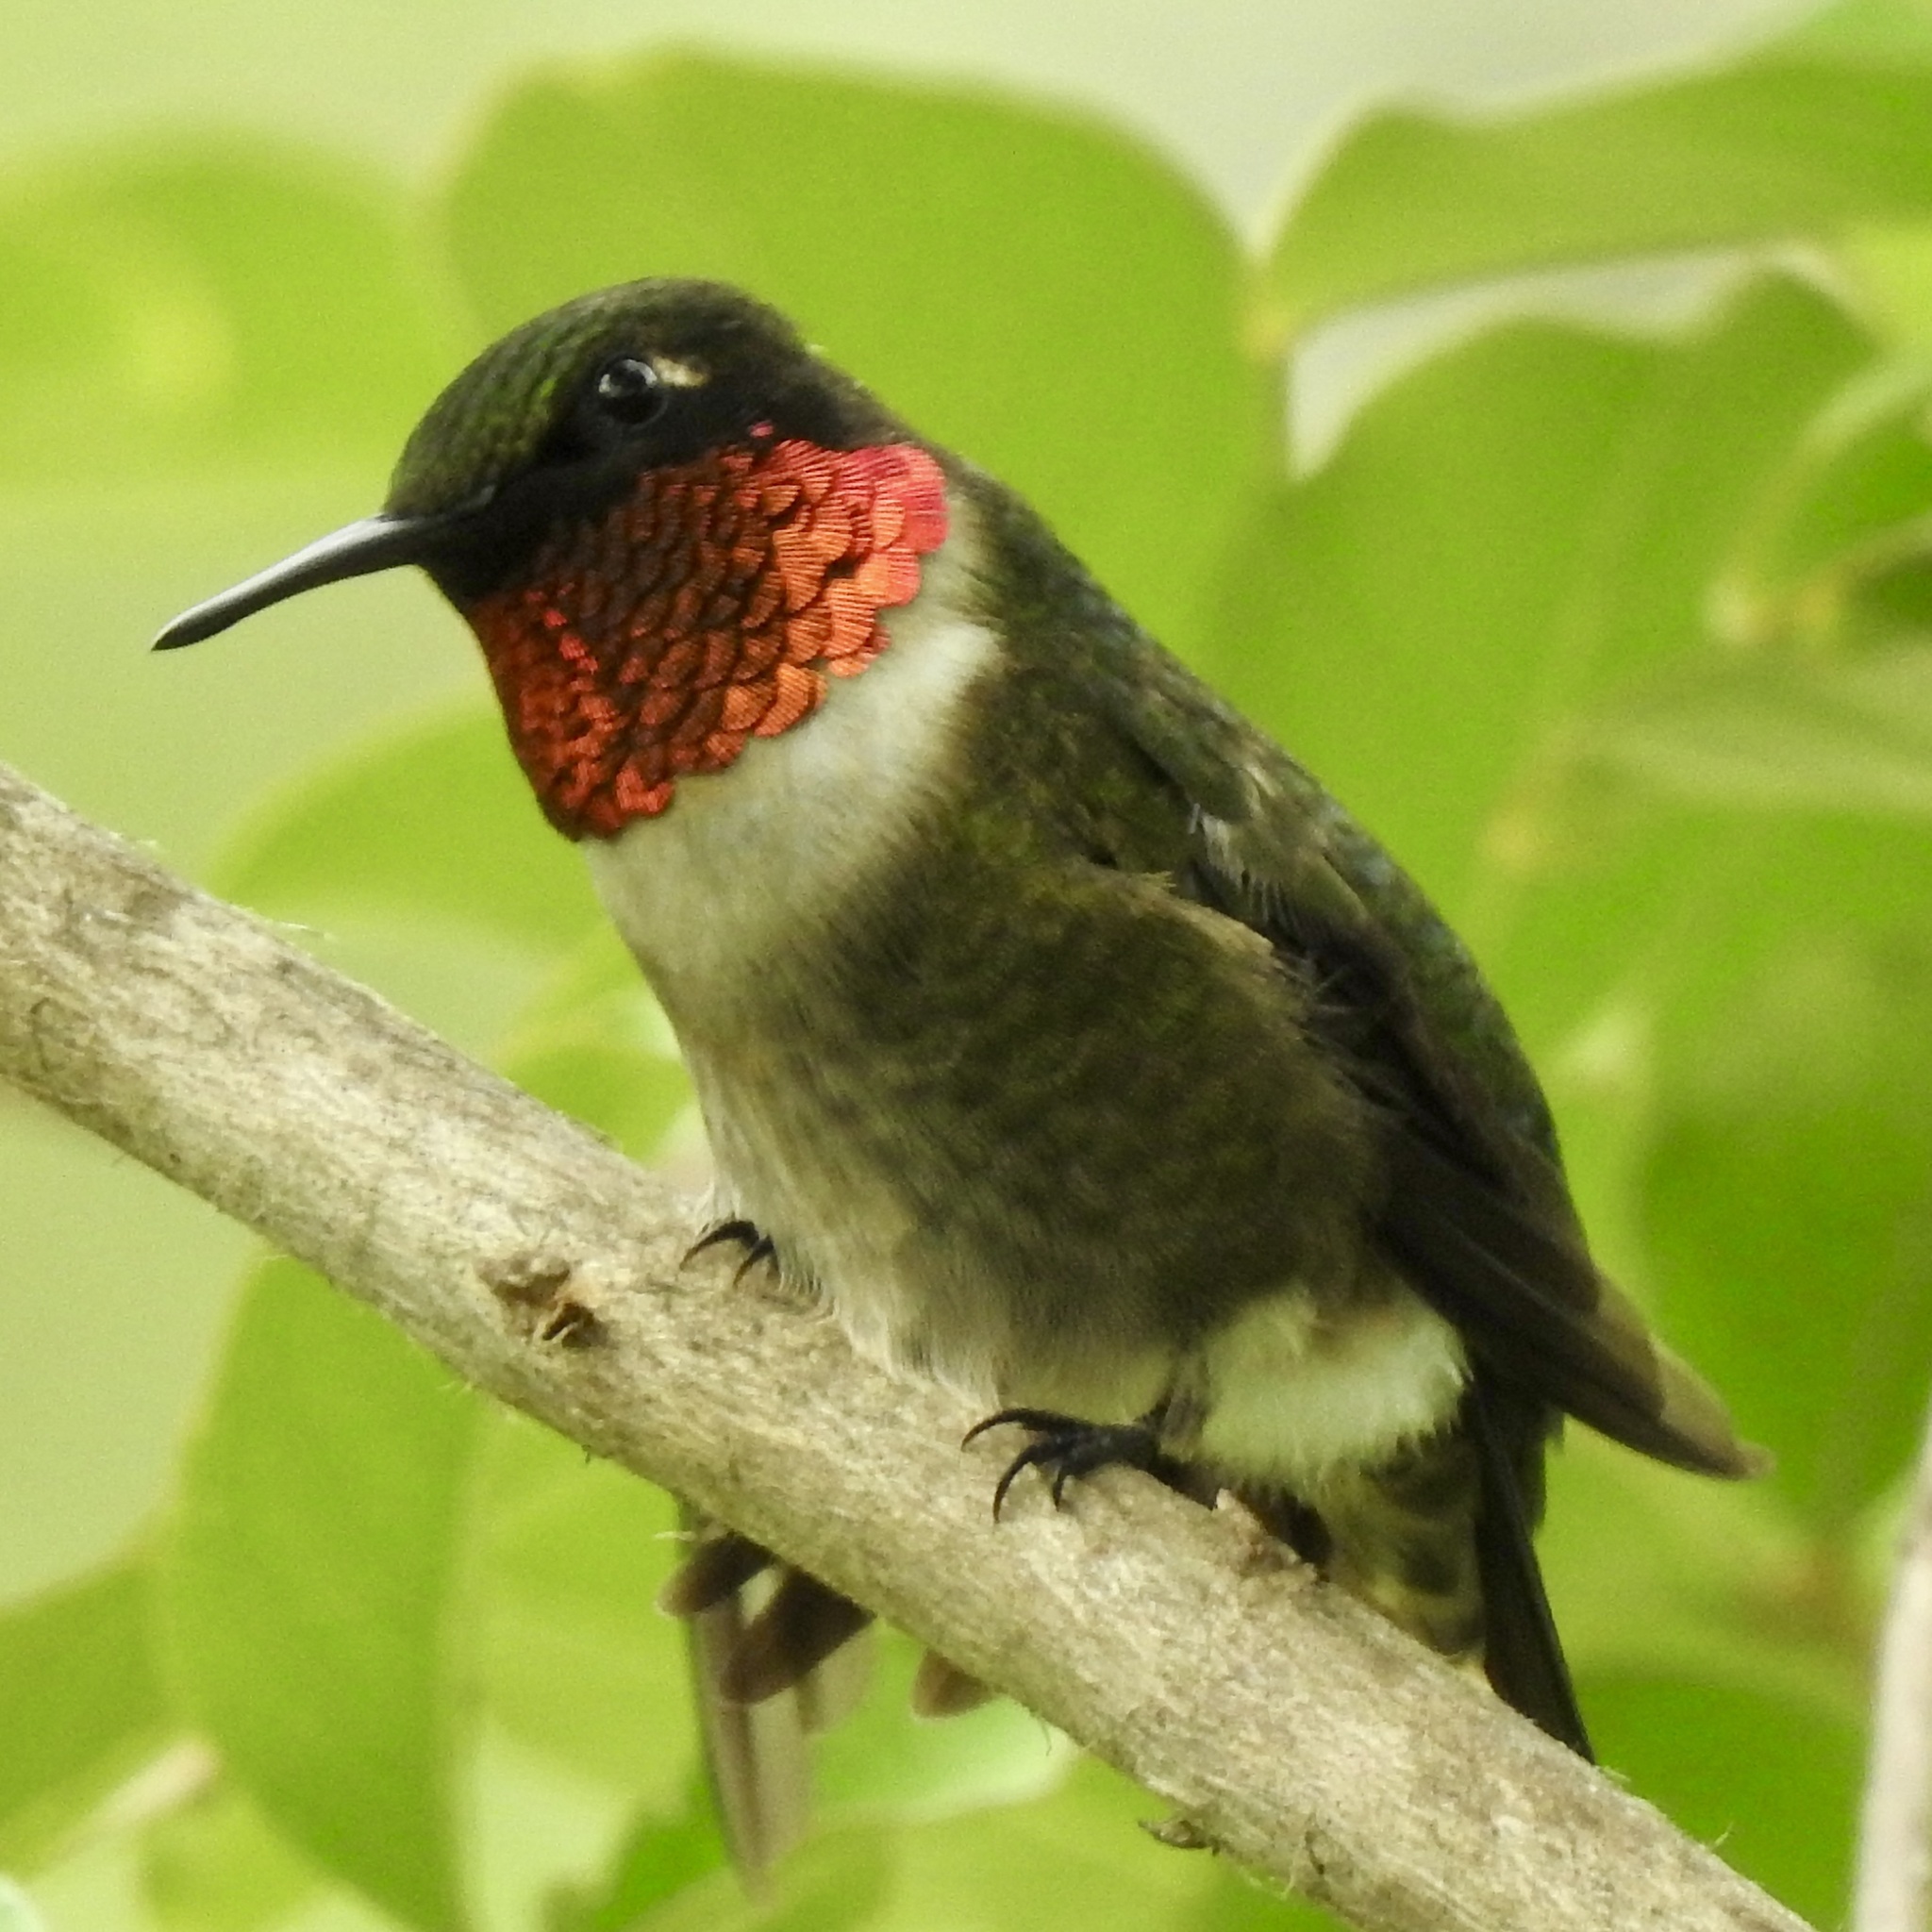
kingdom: Animalia
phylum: Chordata
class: Aves
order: Apodiformes
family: Trochilidae
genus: Archilochus
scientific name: Archilochus colubris
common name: Ruby-throated hummingbird
